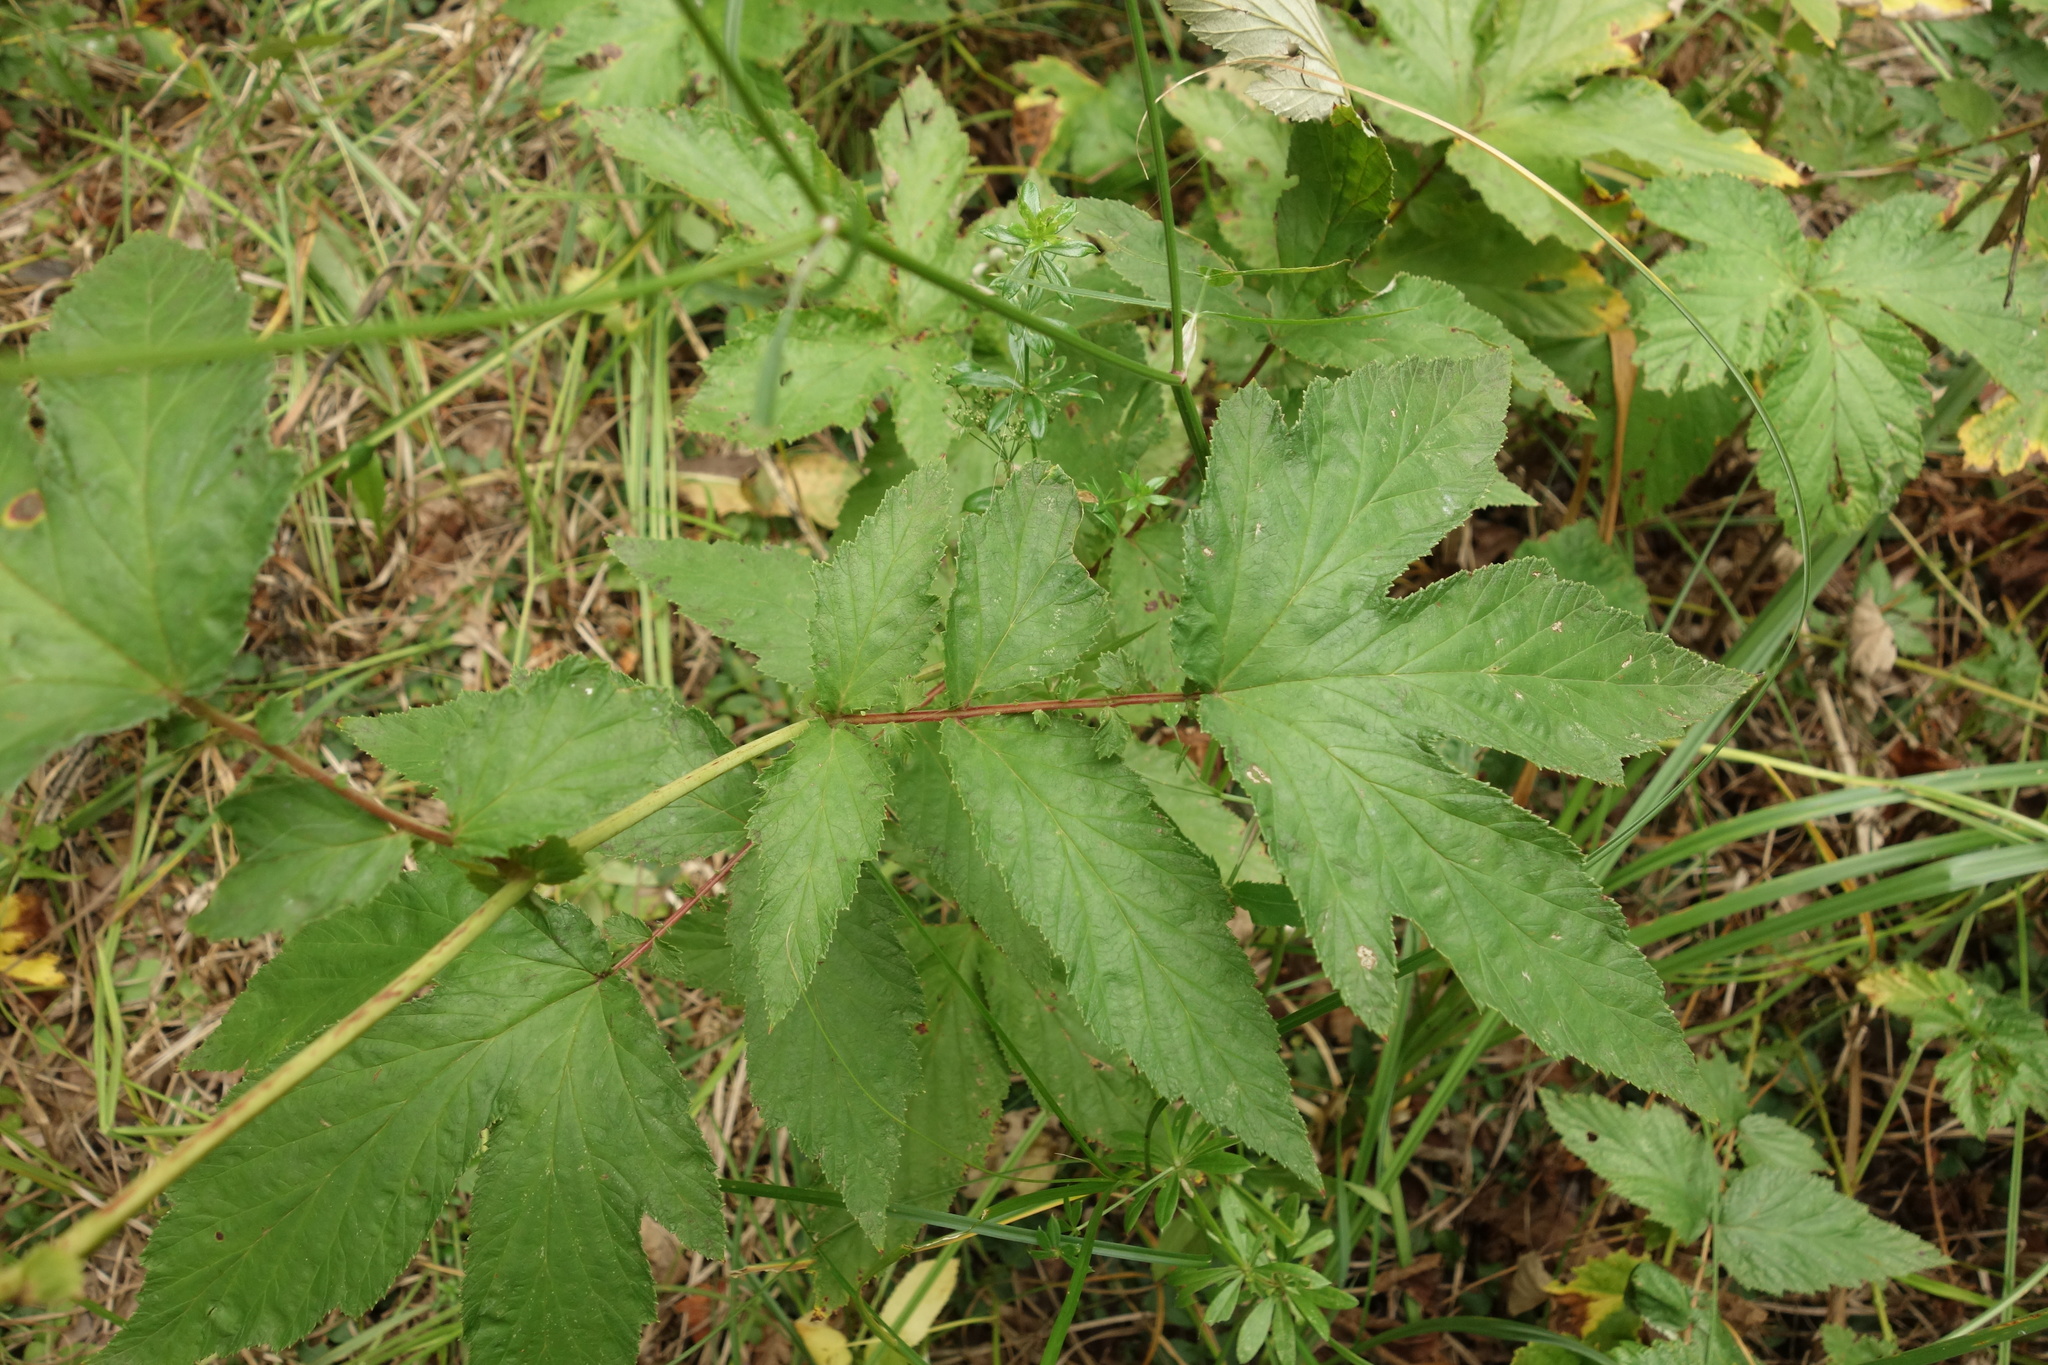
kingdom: Plantae
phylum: Tracheophyta
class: Magnoliopsida
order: Rosales
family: Rosaceae
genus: Filipendula
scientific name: Filipendula ulmaria
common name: Meadowsweet
